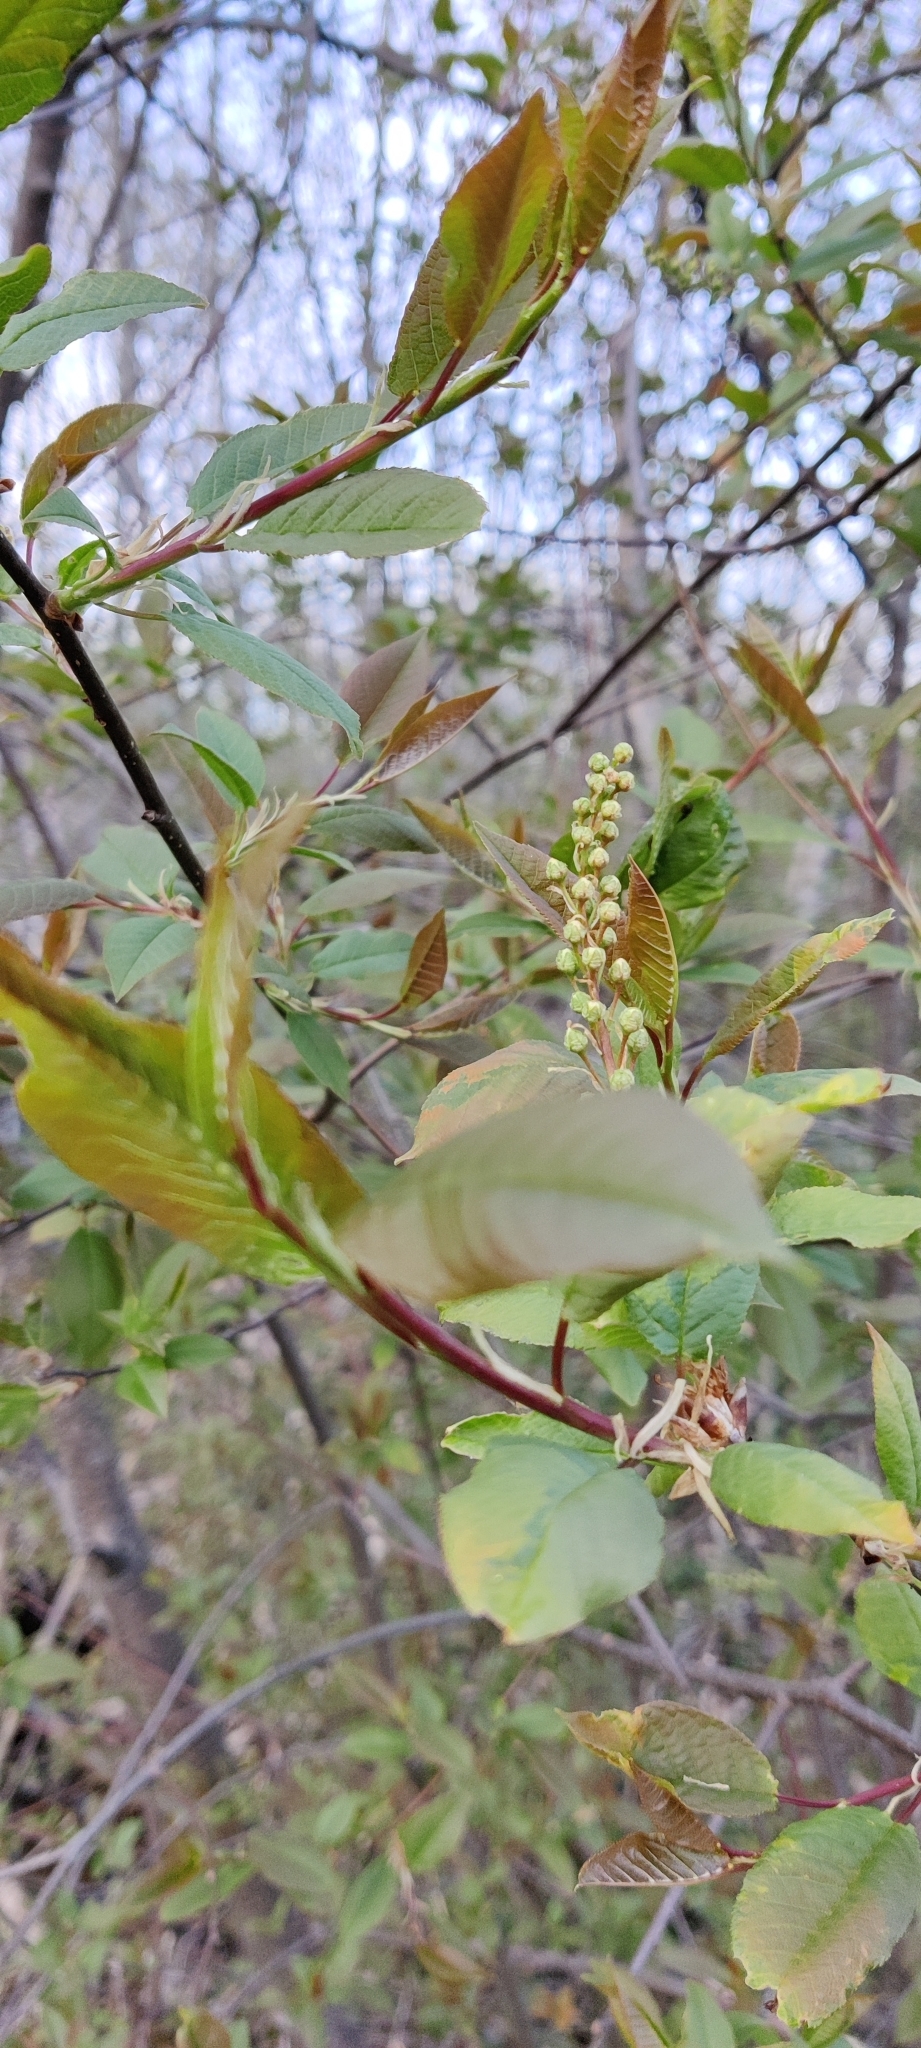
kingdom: Plantae
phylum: Tracheophyta
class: Magnoliopsida
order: Rosales
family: Rosaceae
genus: Prunus
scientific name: Prunus padus
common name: Bird cherry
